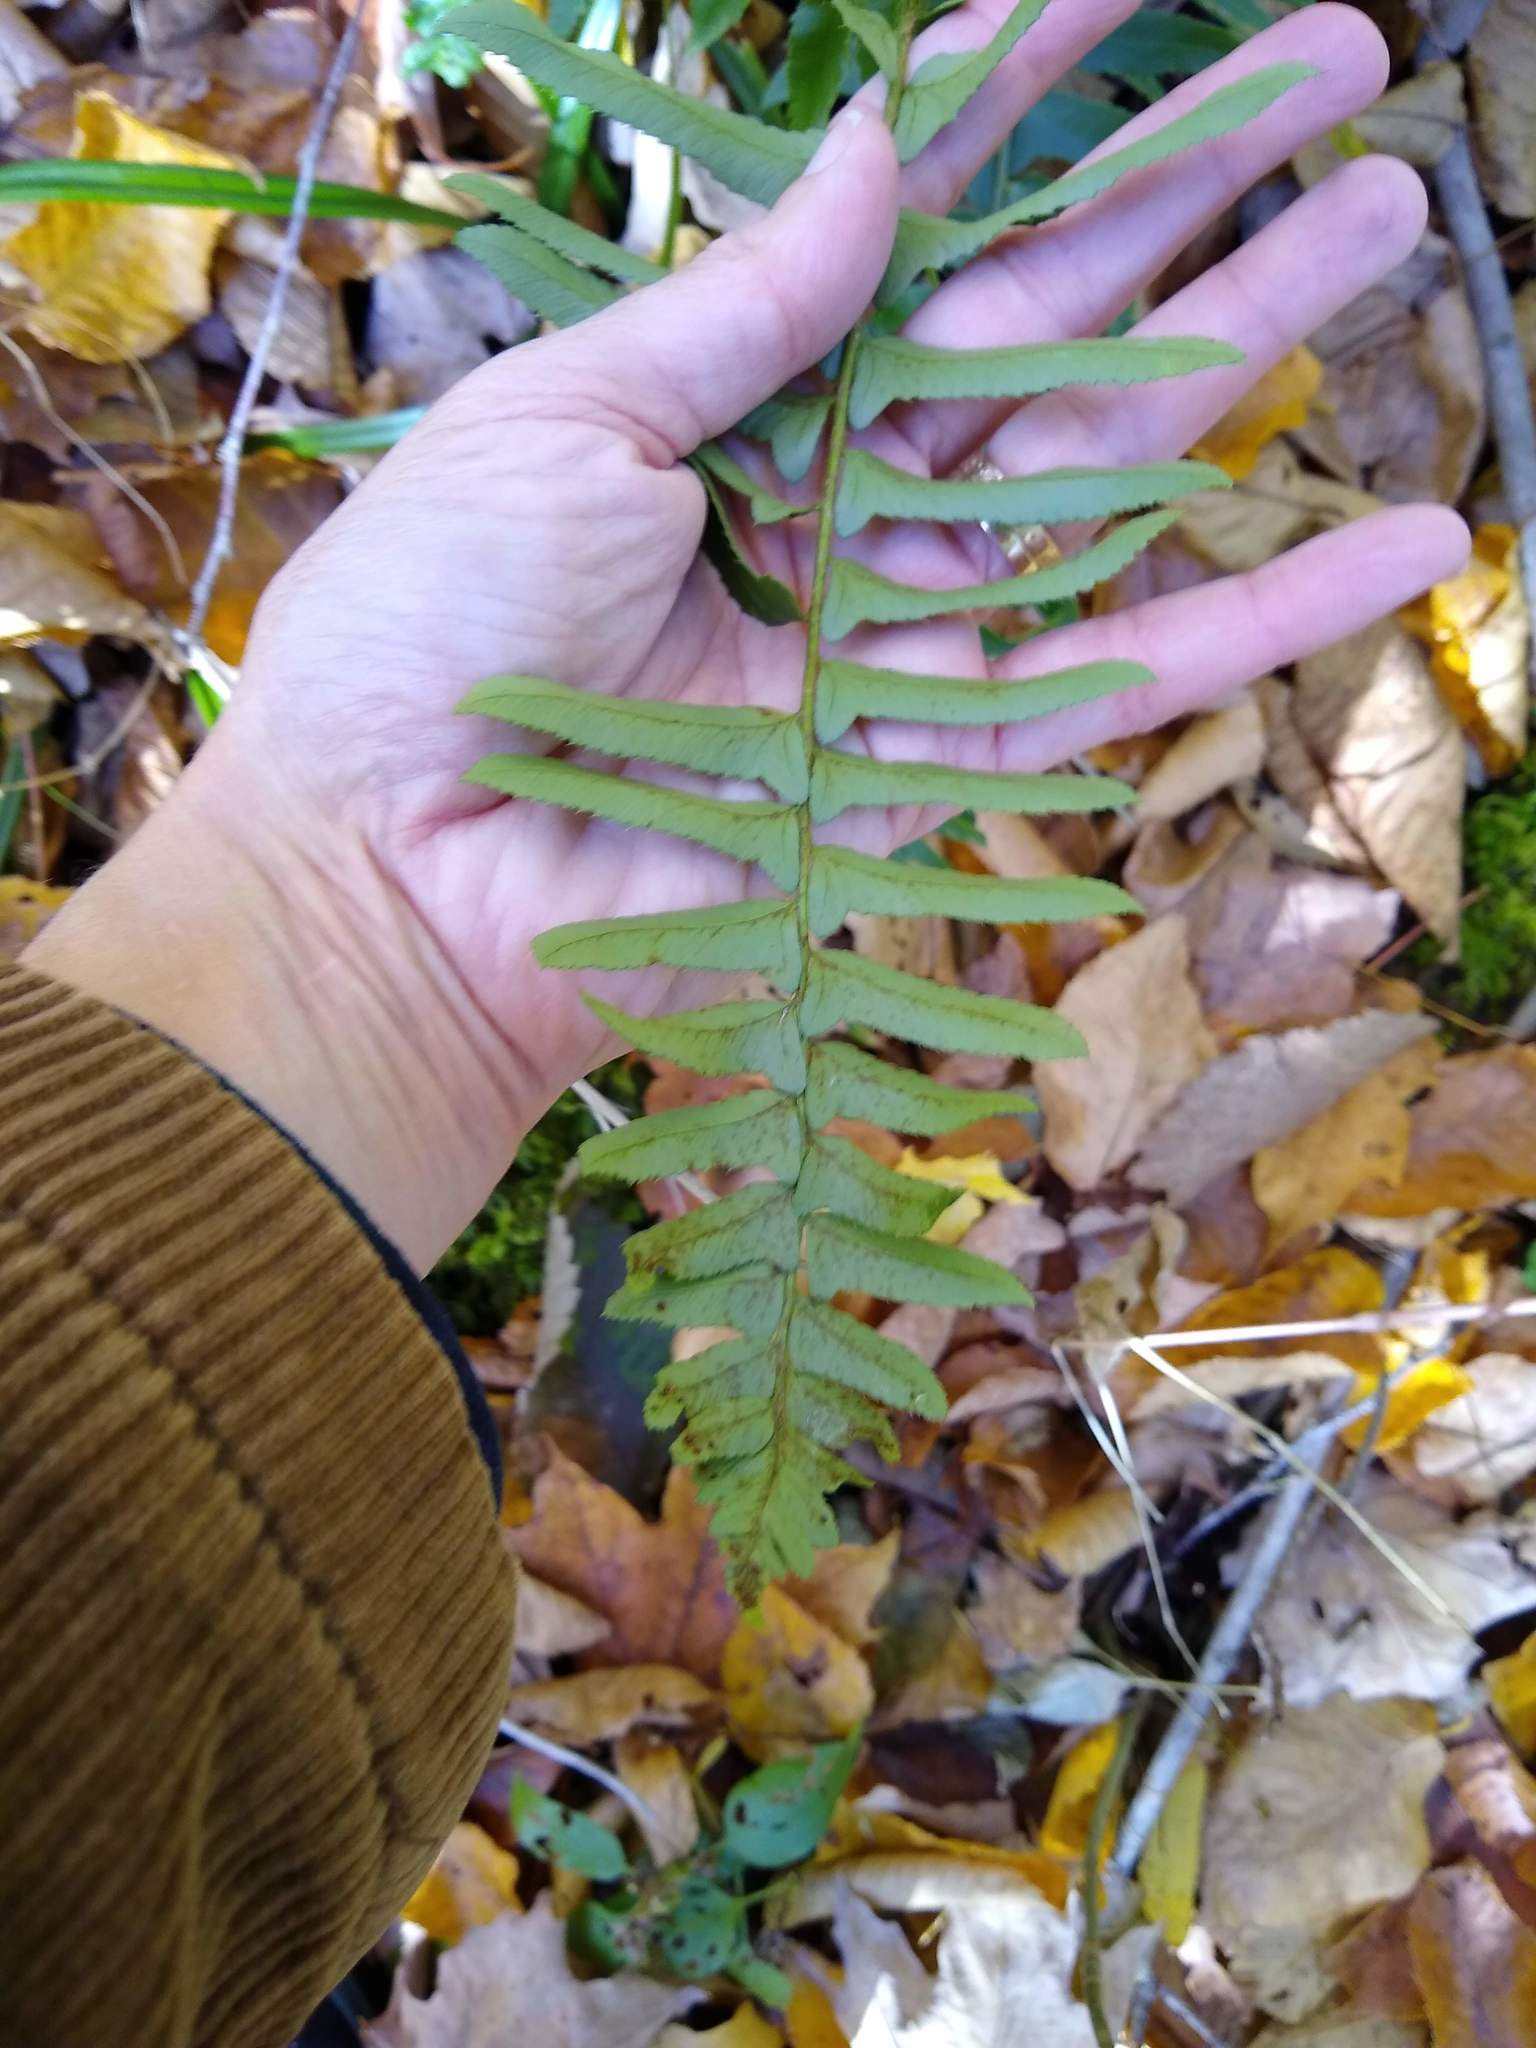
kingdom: Plantae
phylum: Tracheophyta
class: Polypodiopsida
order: Polypodiales
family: Dryopteridaceae
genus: Polystichum
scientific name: Polystichum acrostichoides
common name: Christmas fern
